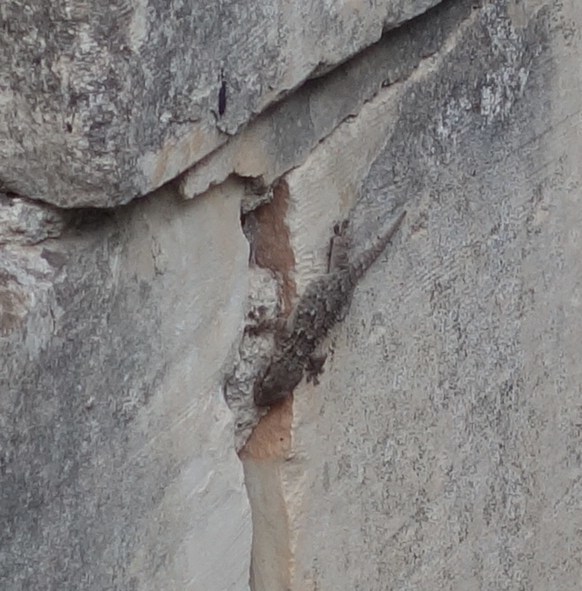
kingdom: Animalia
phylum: Chordata
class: Squamata
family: Phyllodactylidae
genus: Tarentola
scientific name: Tarentola mauritanica
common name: Moorish gecko
